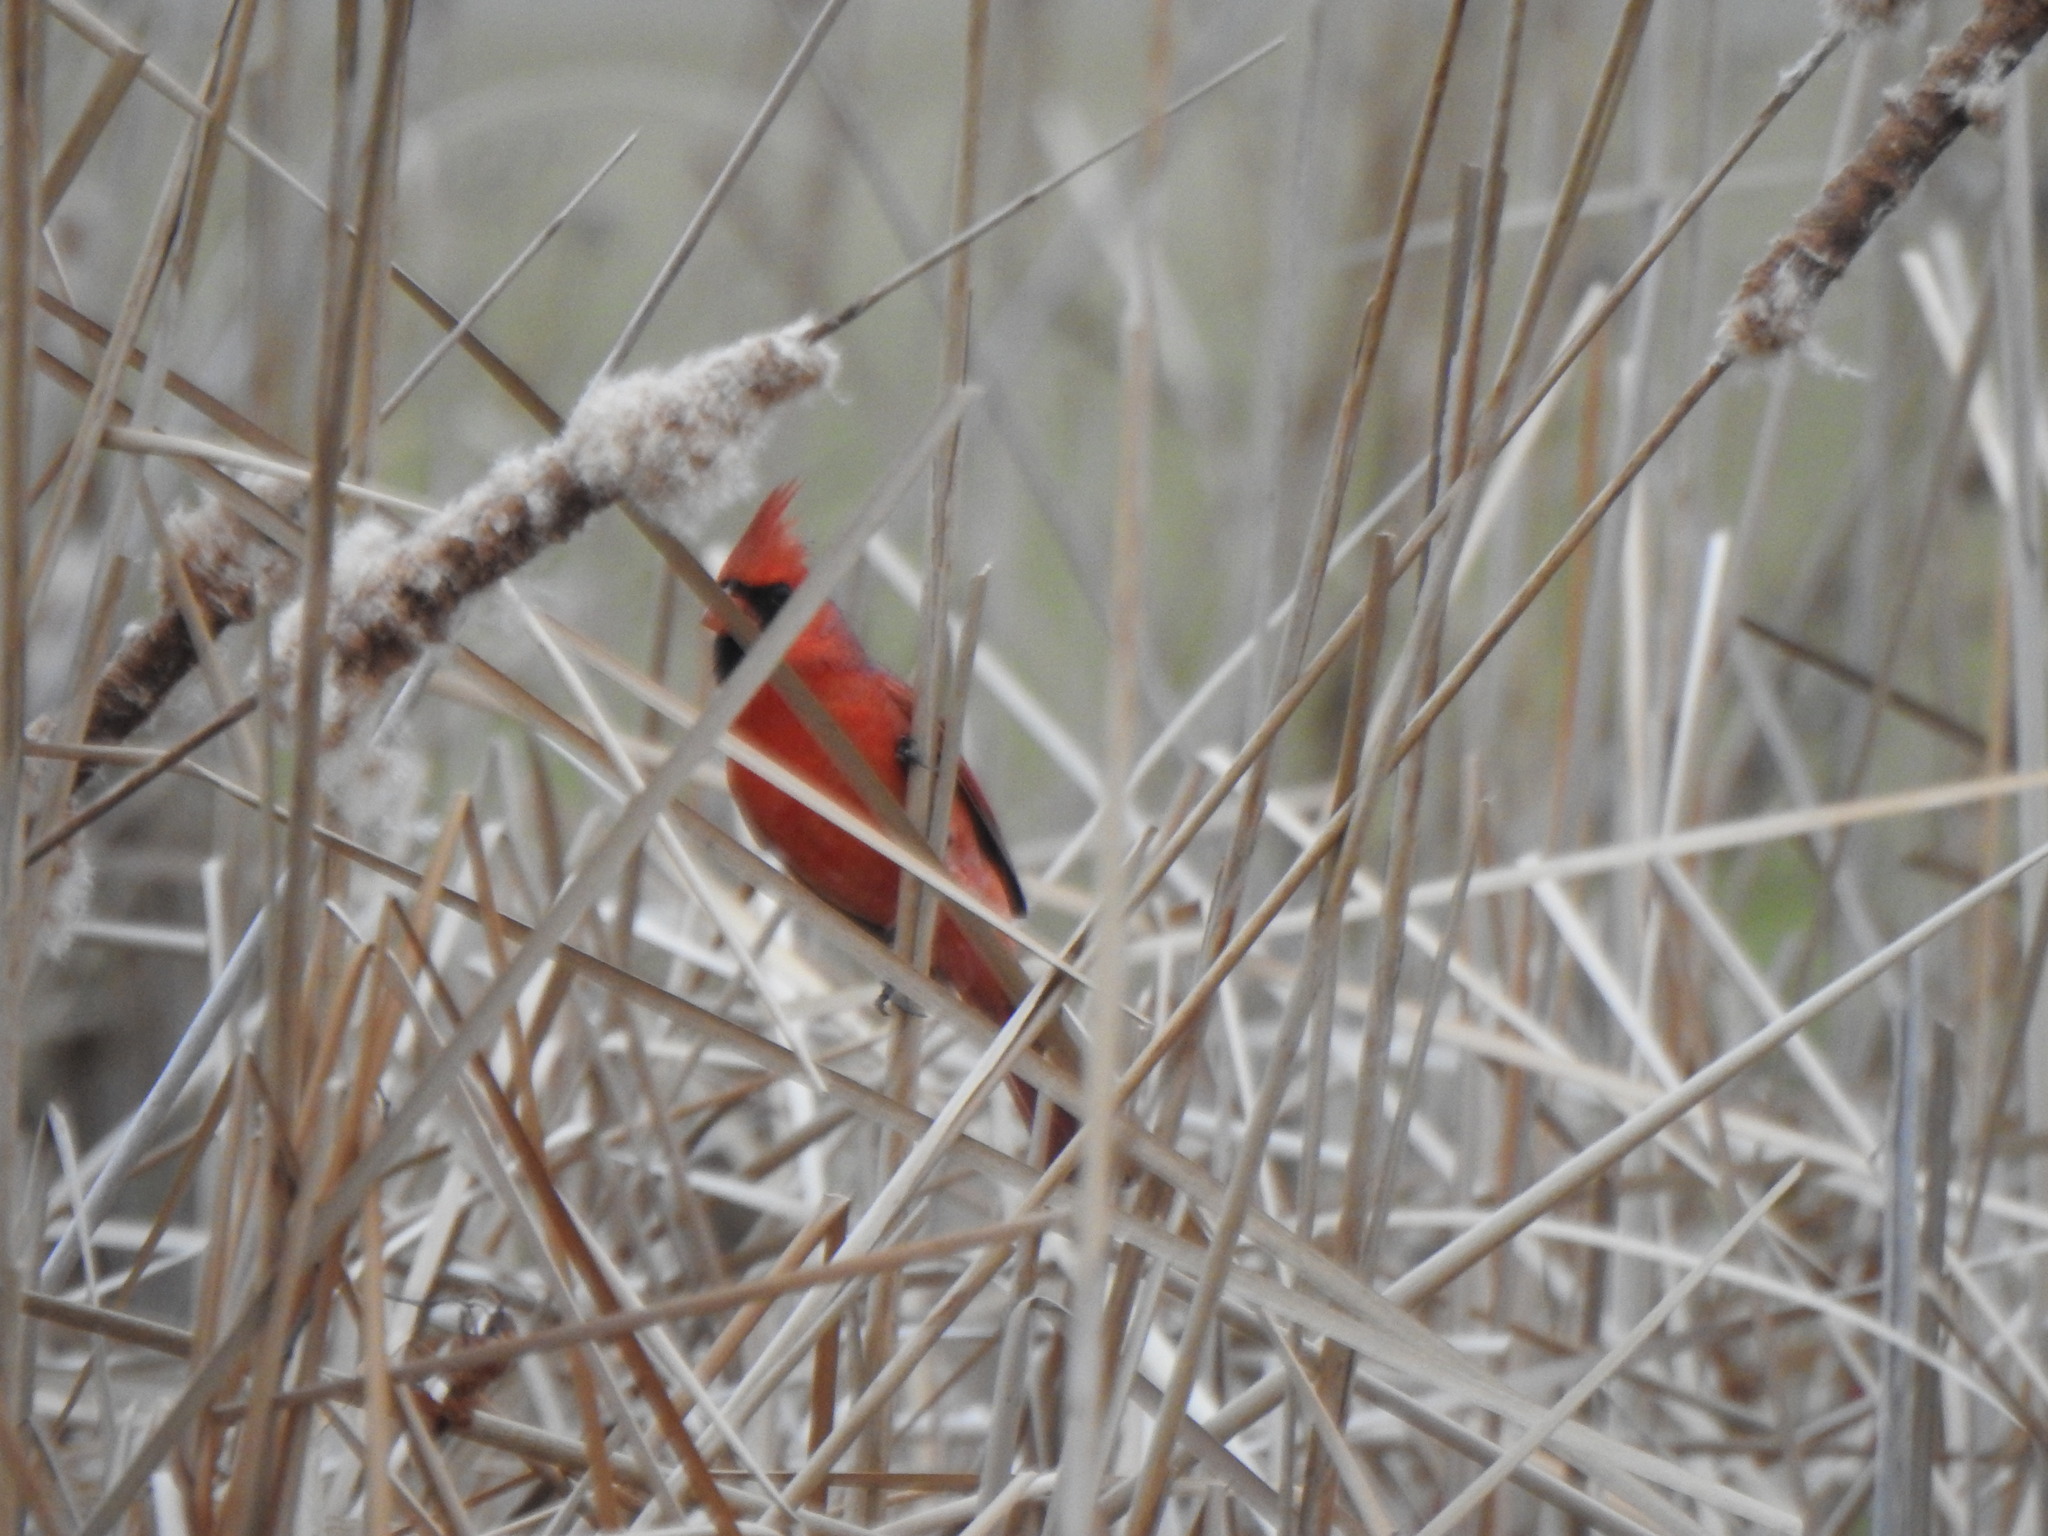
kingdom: Animalia
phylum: Chordata
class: Aves
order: Passeriformes
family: Cardinalidae
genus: Cardinalis
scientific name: Cardinalis cardinalis
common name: Northern cardinal
